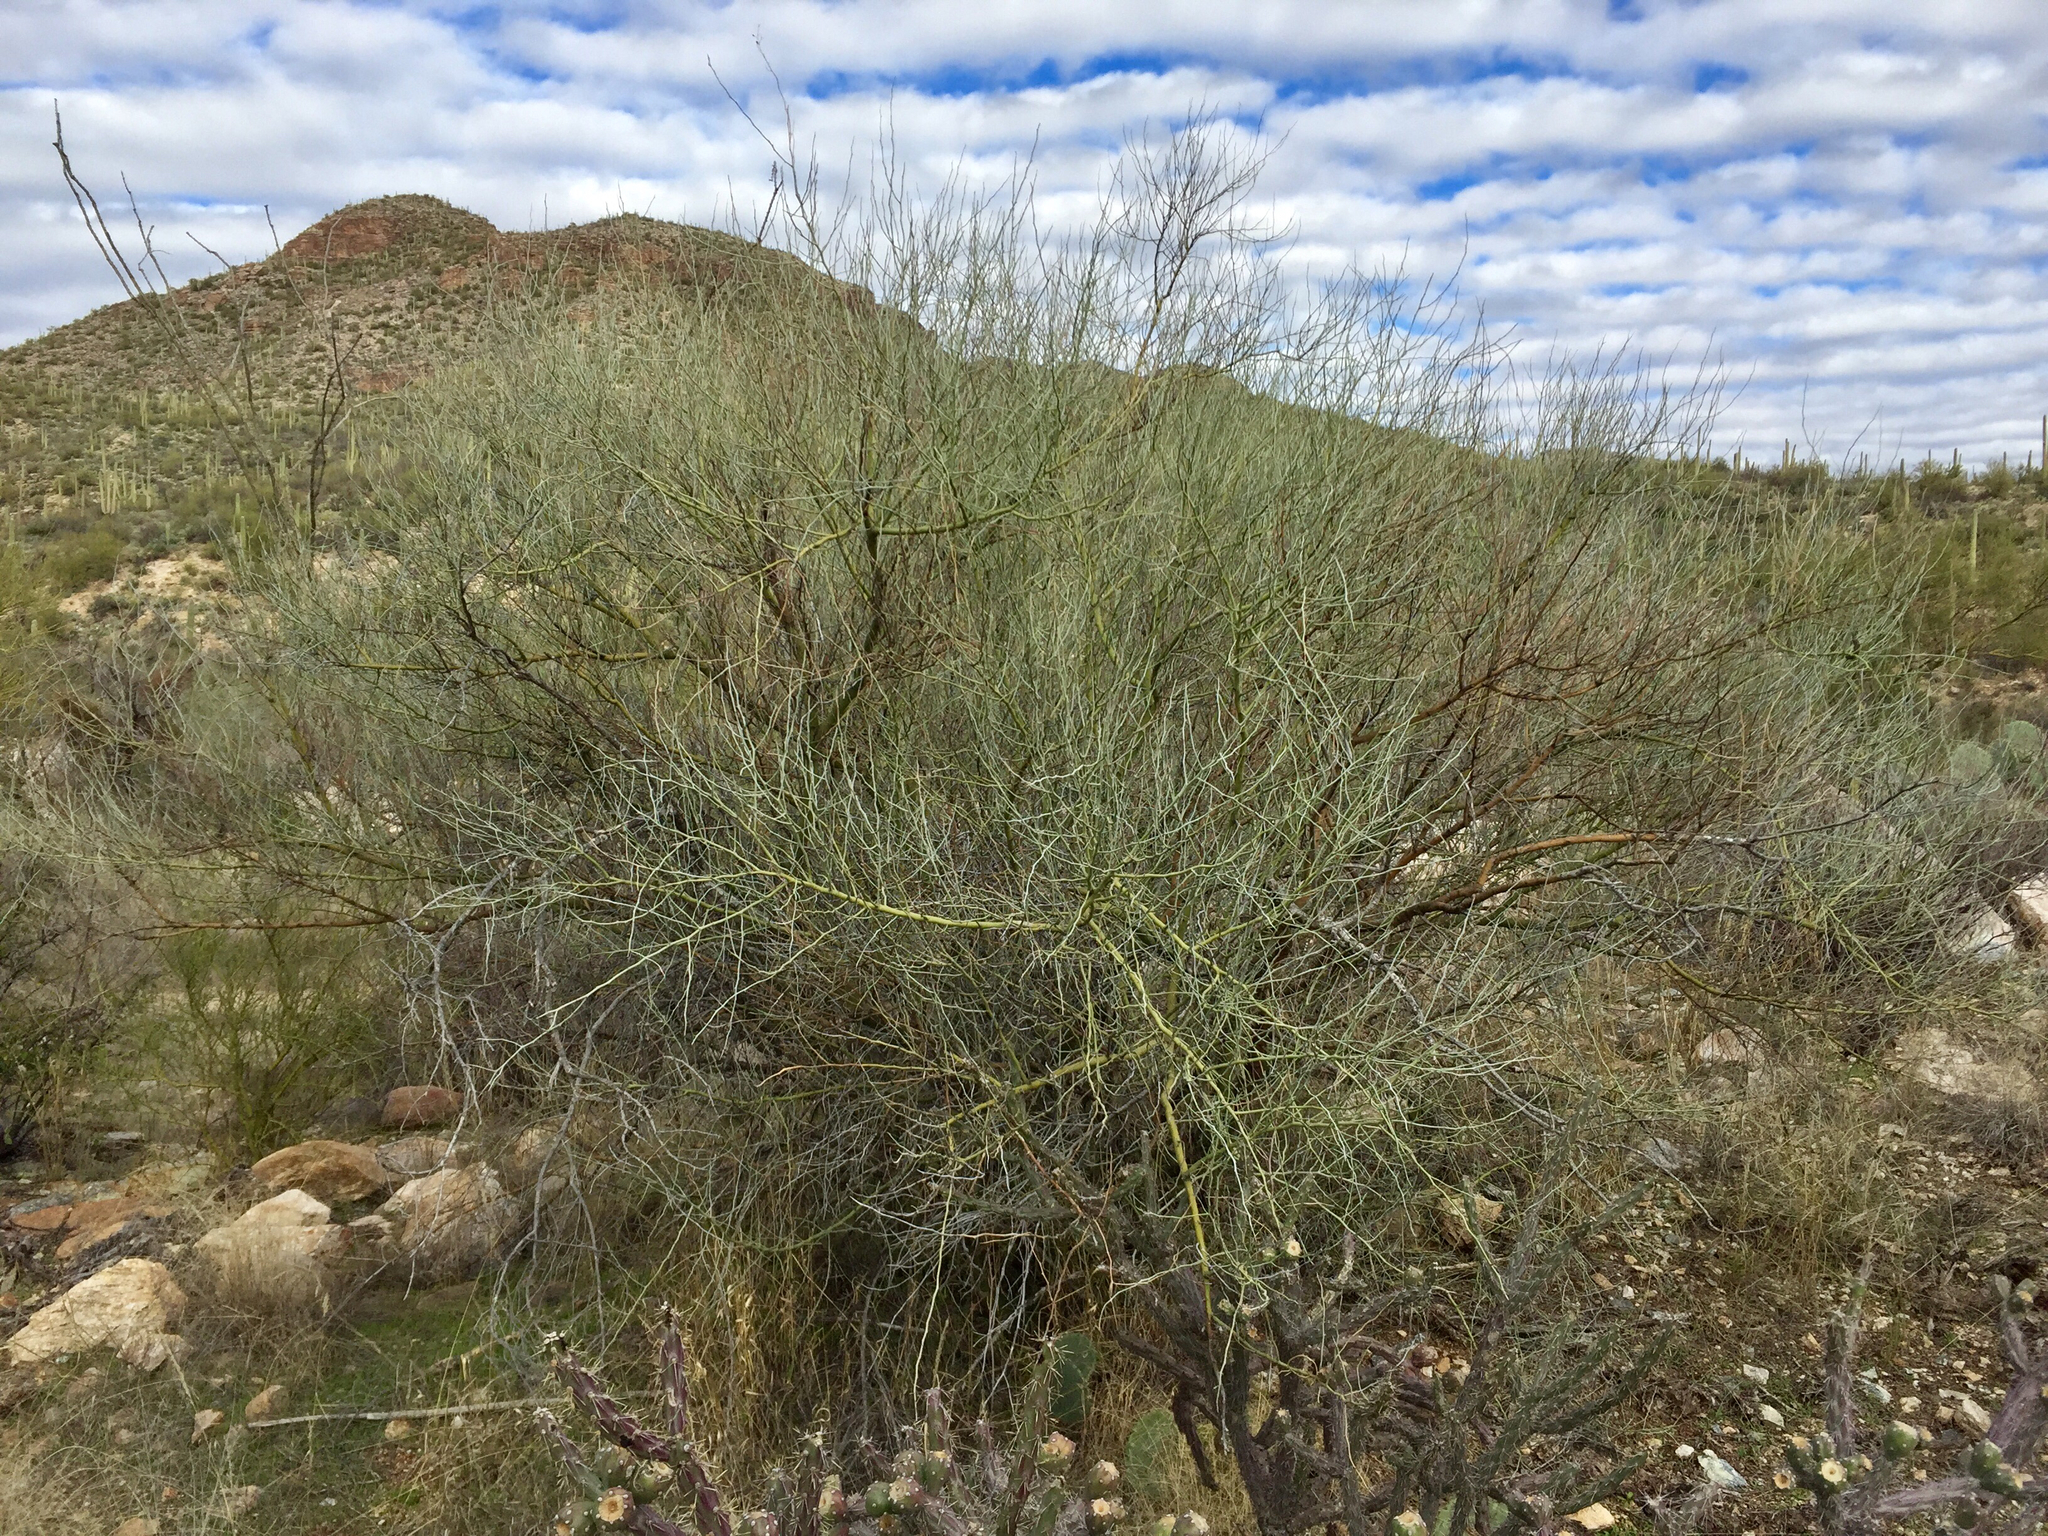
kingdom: Plantae
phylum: Tracheophyta
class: Magnoliopsida
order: Fabales
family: Fabaceae
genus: Parkinsonia
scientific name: Parkinsonia florida
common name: Blue paloverde
